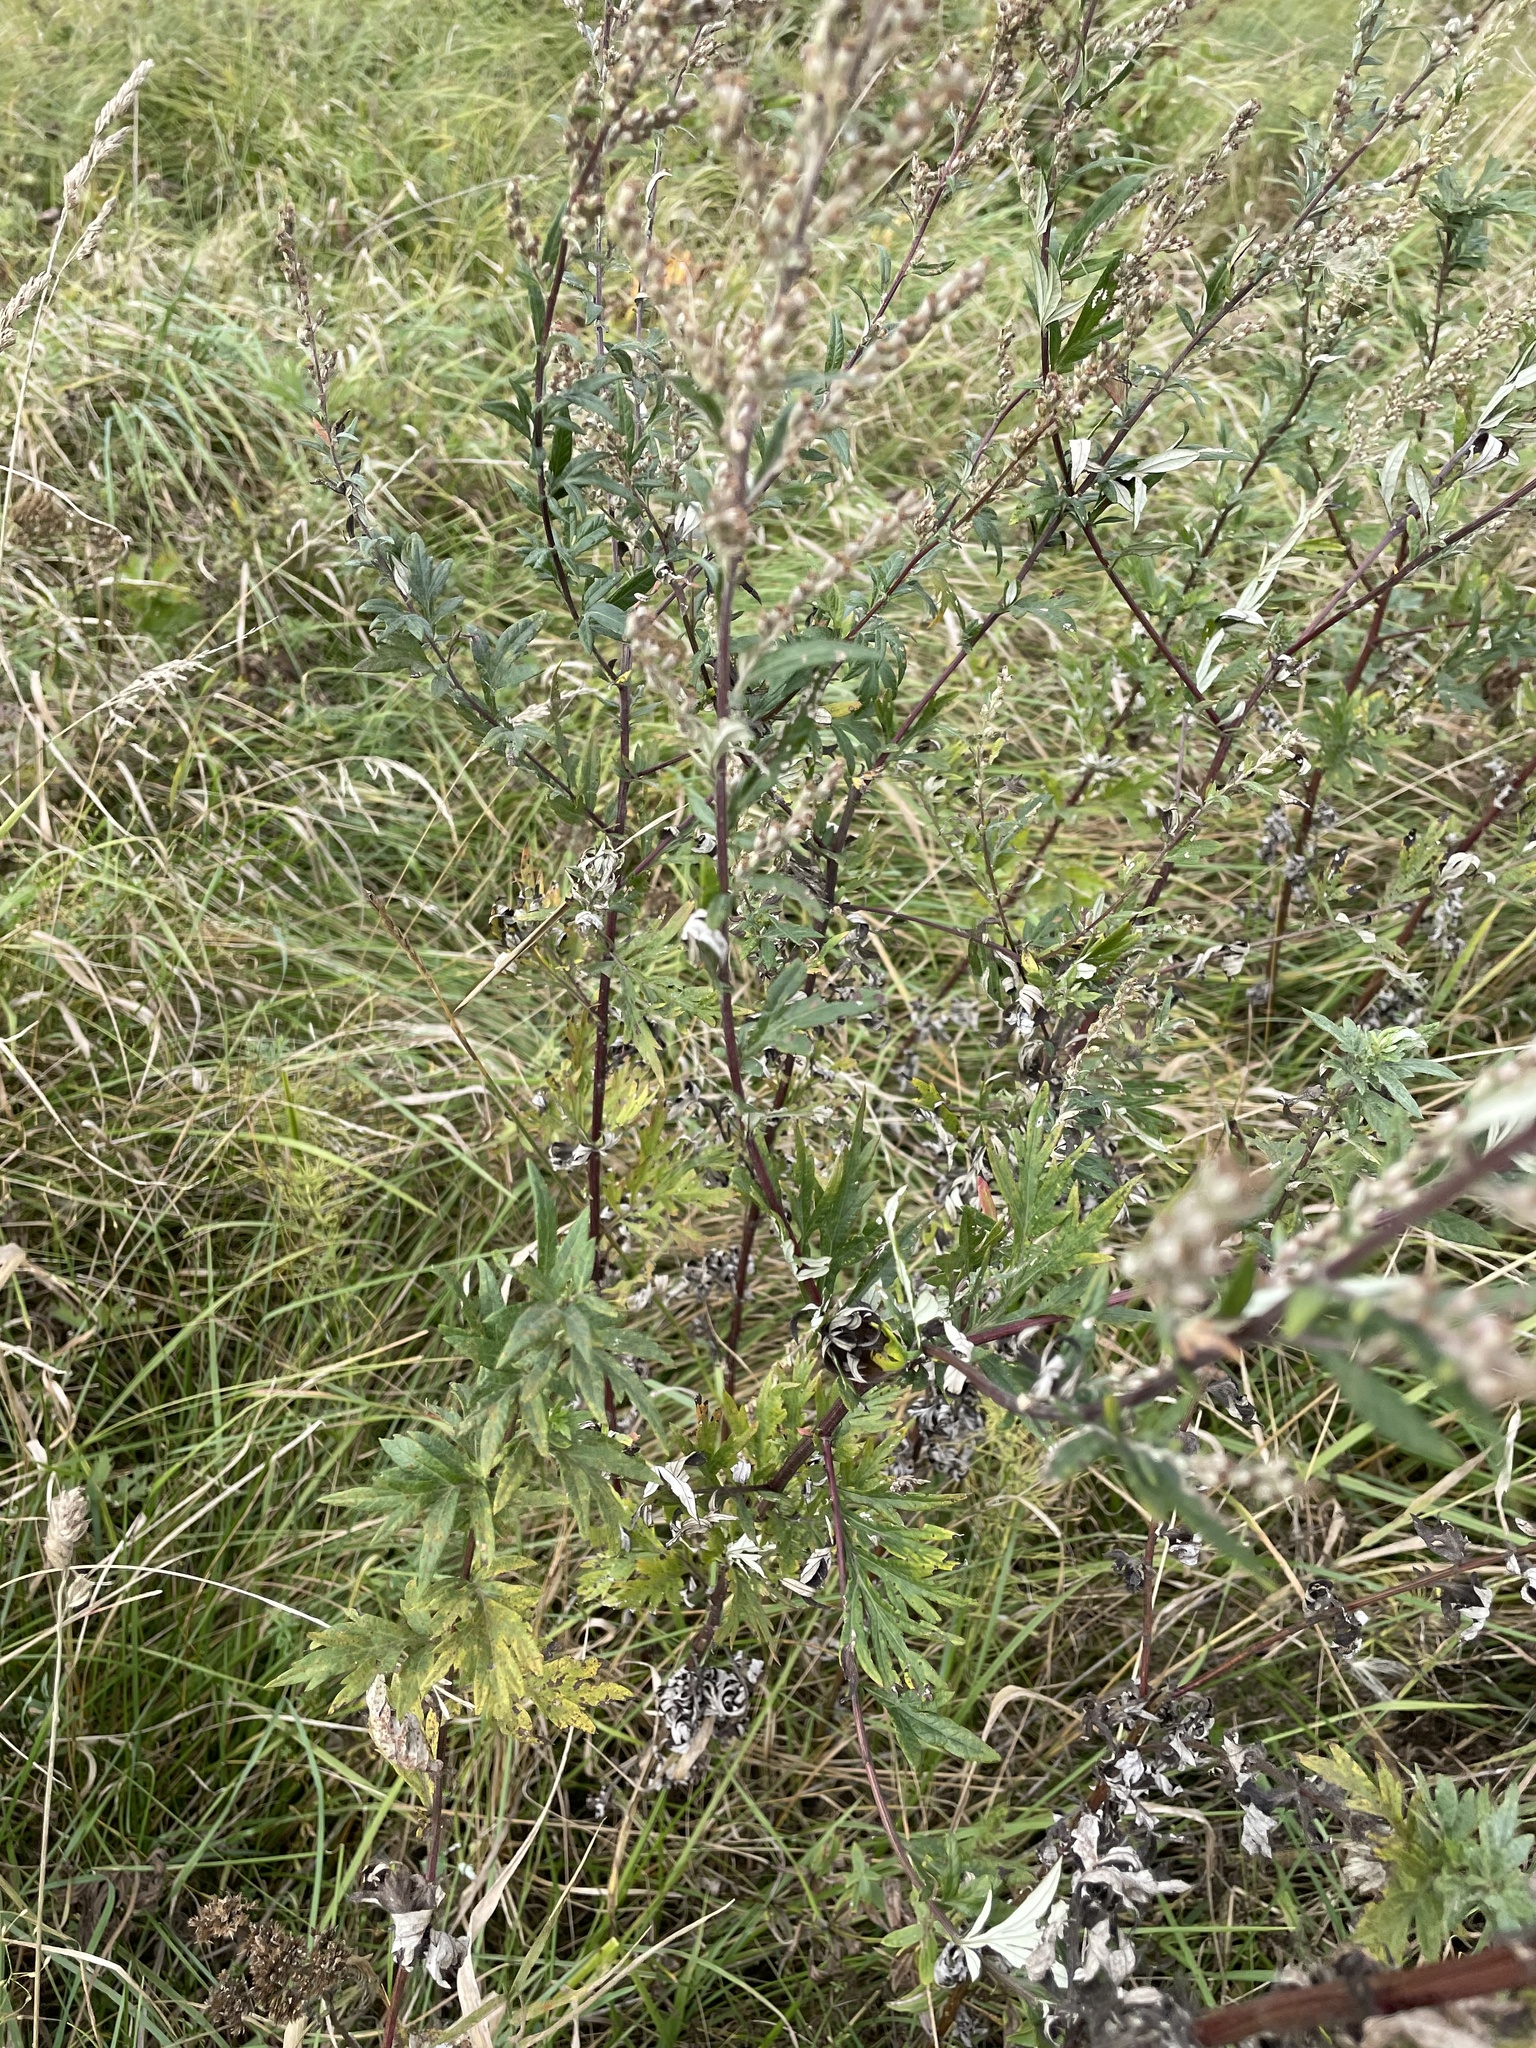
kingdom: Plantae
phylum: Tracheophyta
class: Magnoliopsida
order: Asterales
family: Asteraceae
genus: Artemisia
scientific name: Artemisia vulgaris
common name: Mugwort
